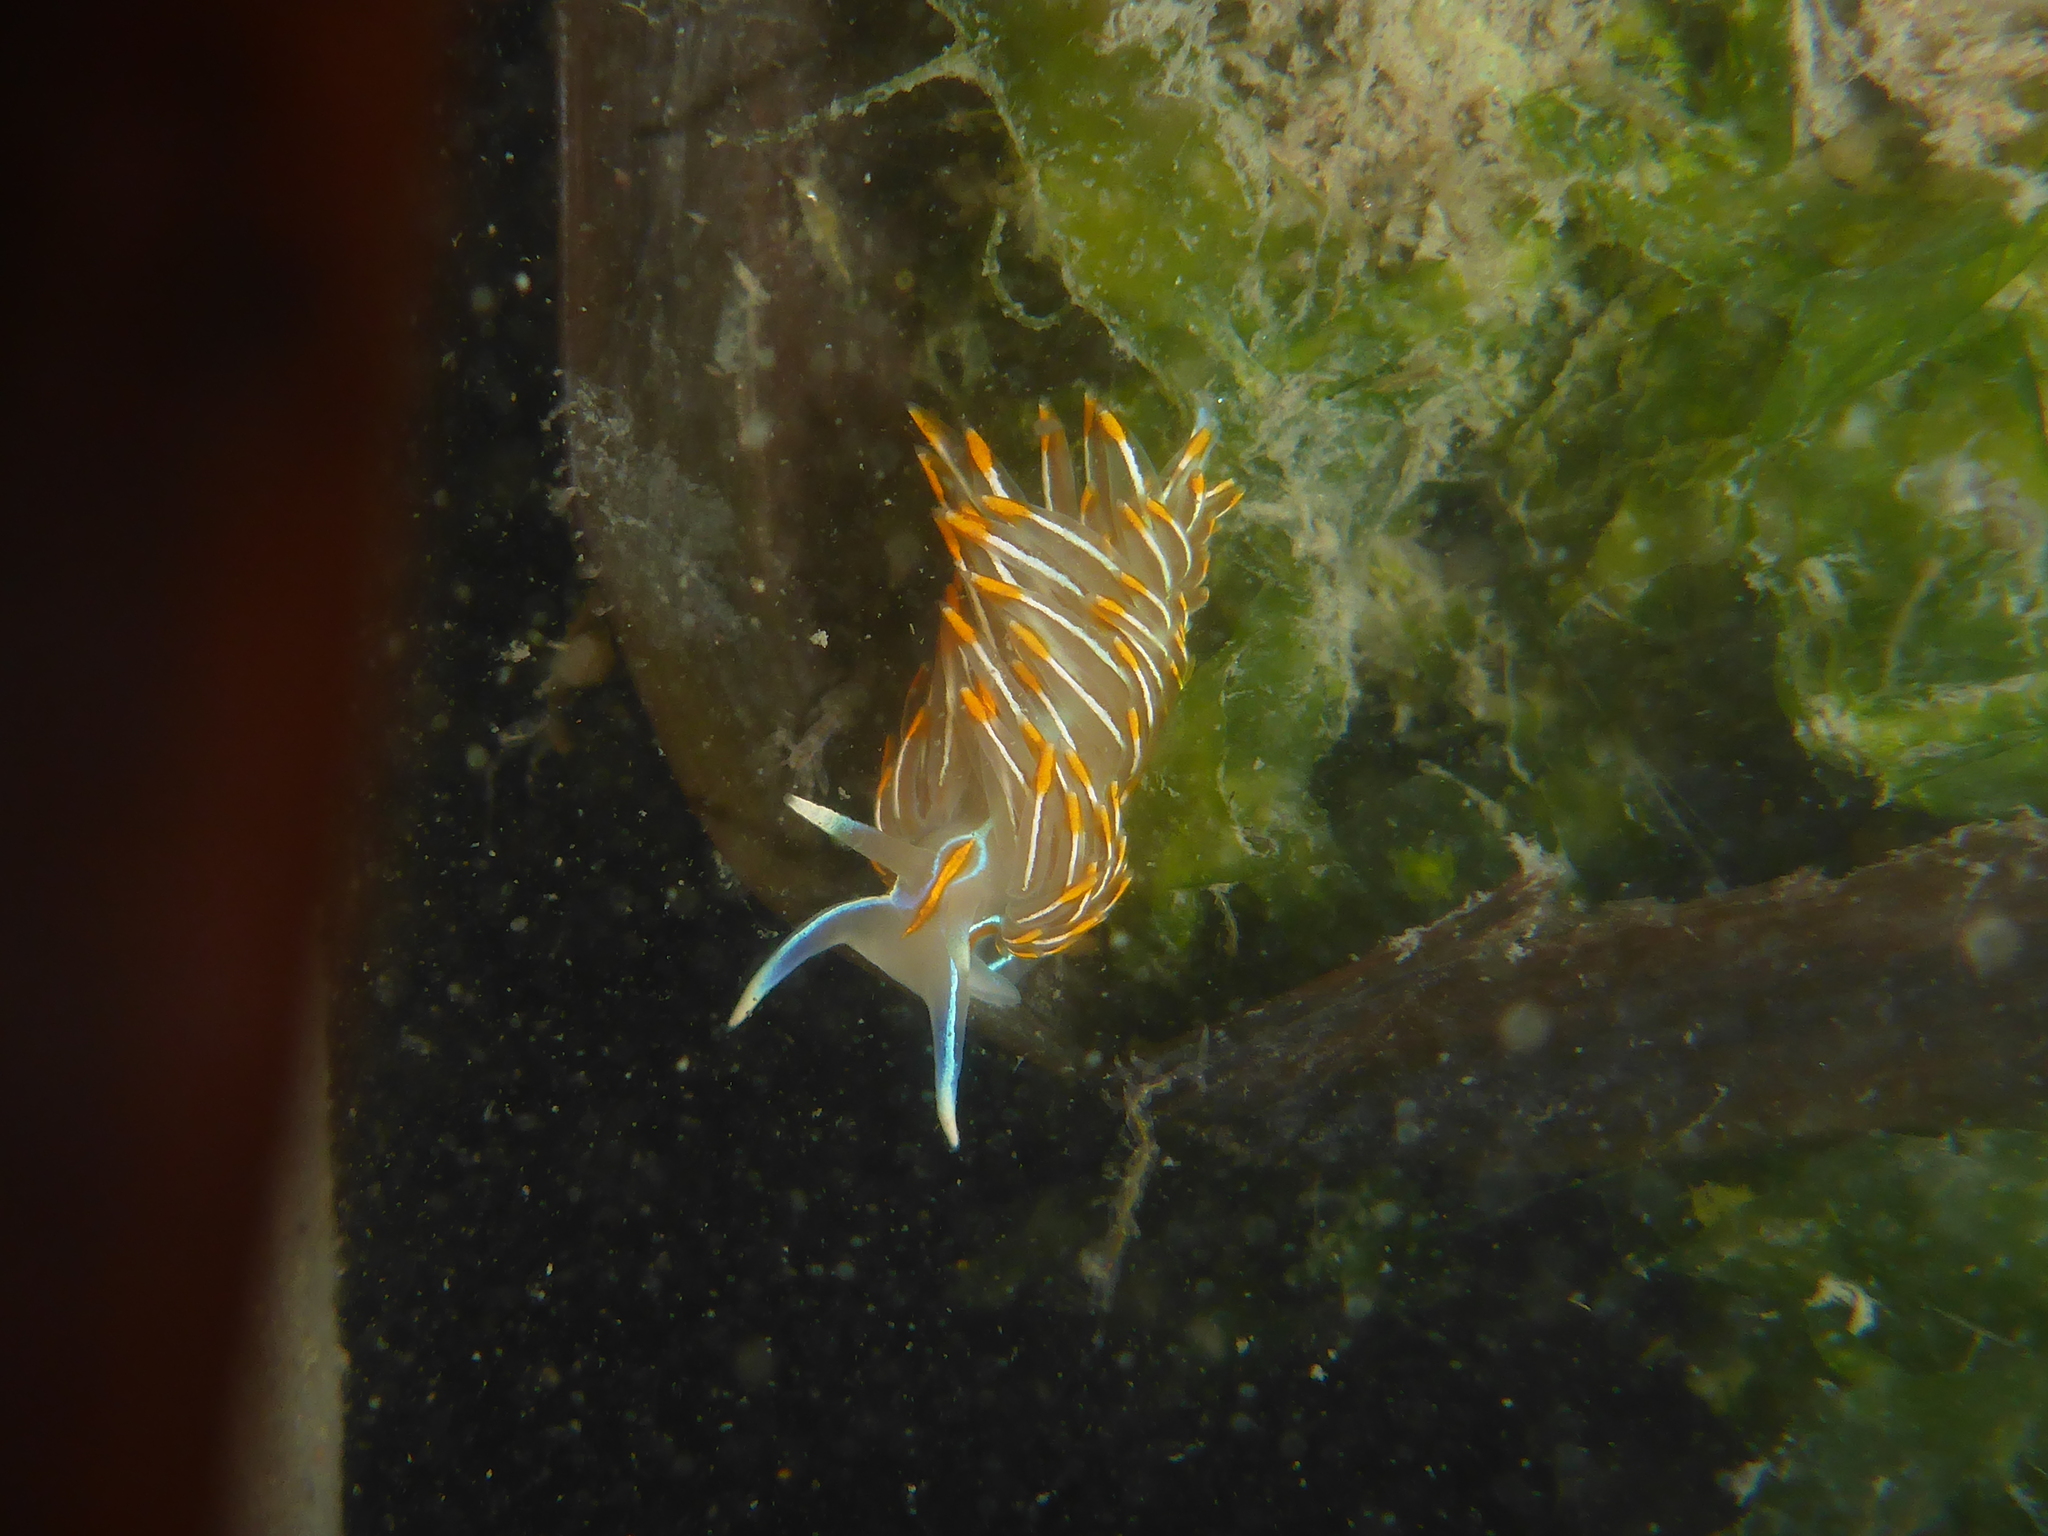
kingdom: Animalia
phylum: Mollusca
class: Gastropoda
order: Nudibranchia
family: Myrrhinidae
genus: Hermissenda
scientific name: Hermissenda crassicornis
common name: Hermissenda
